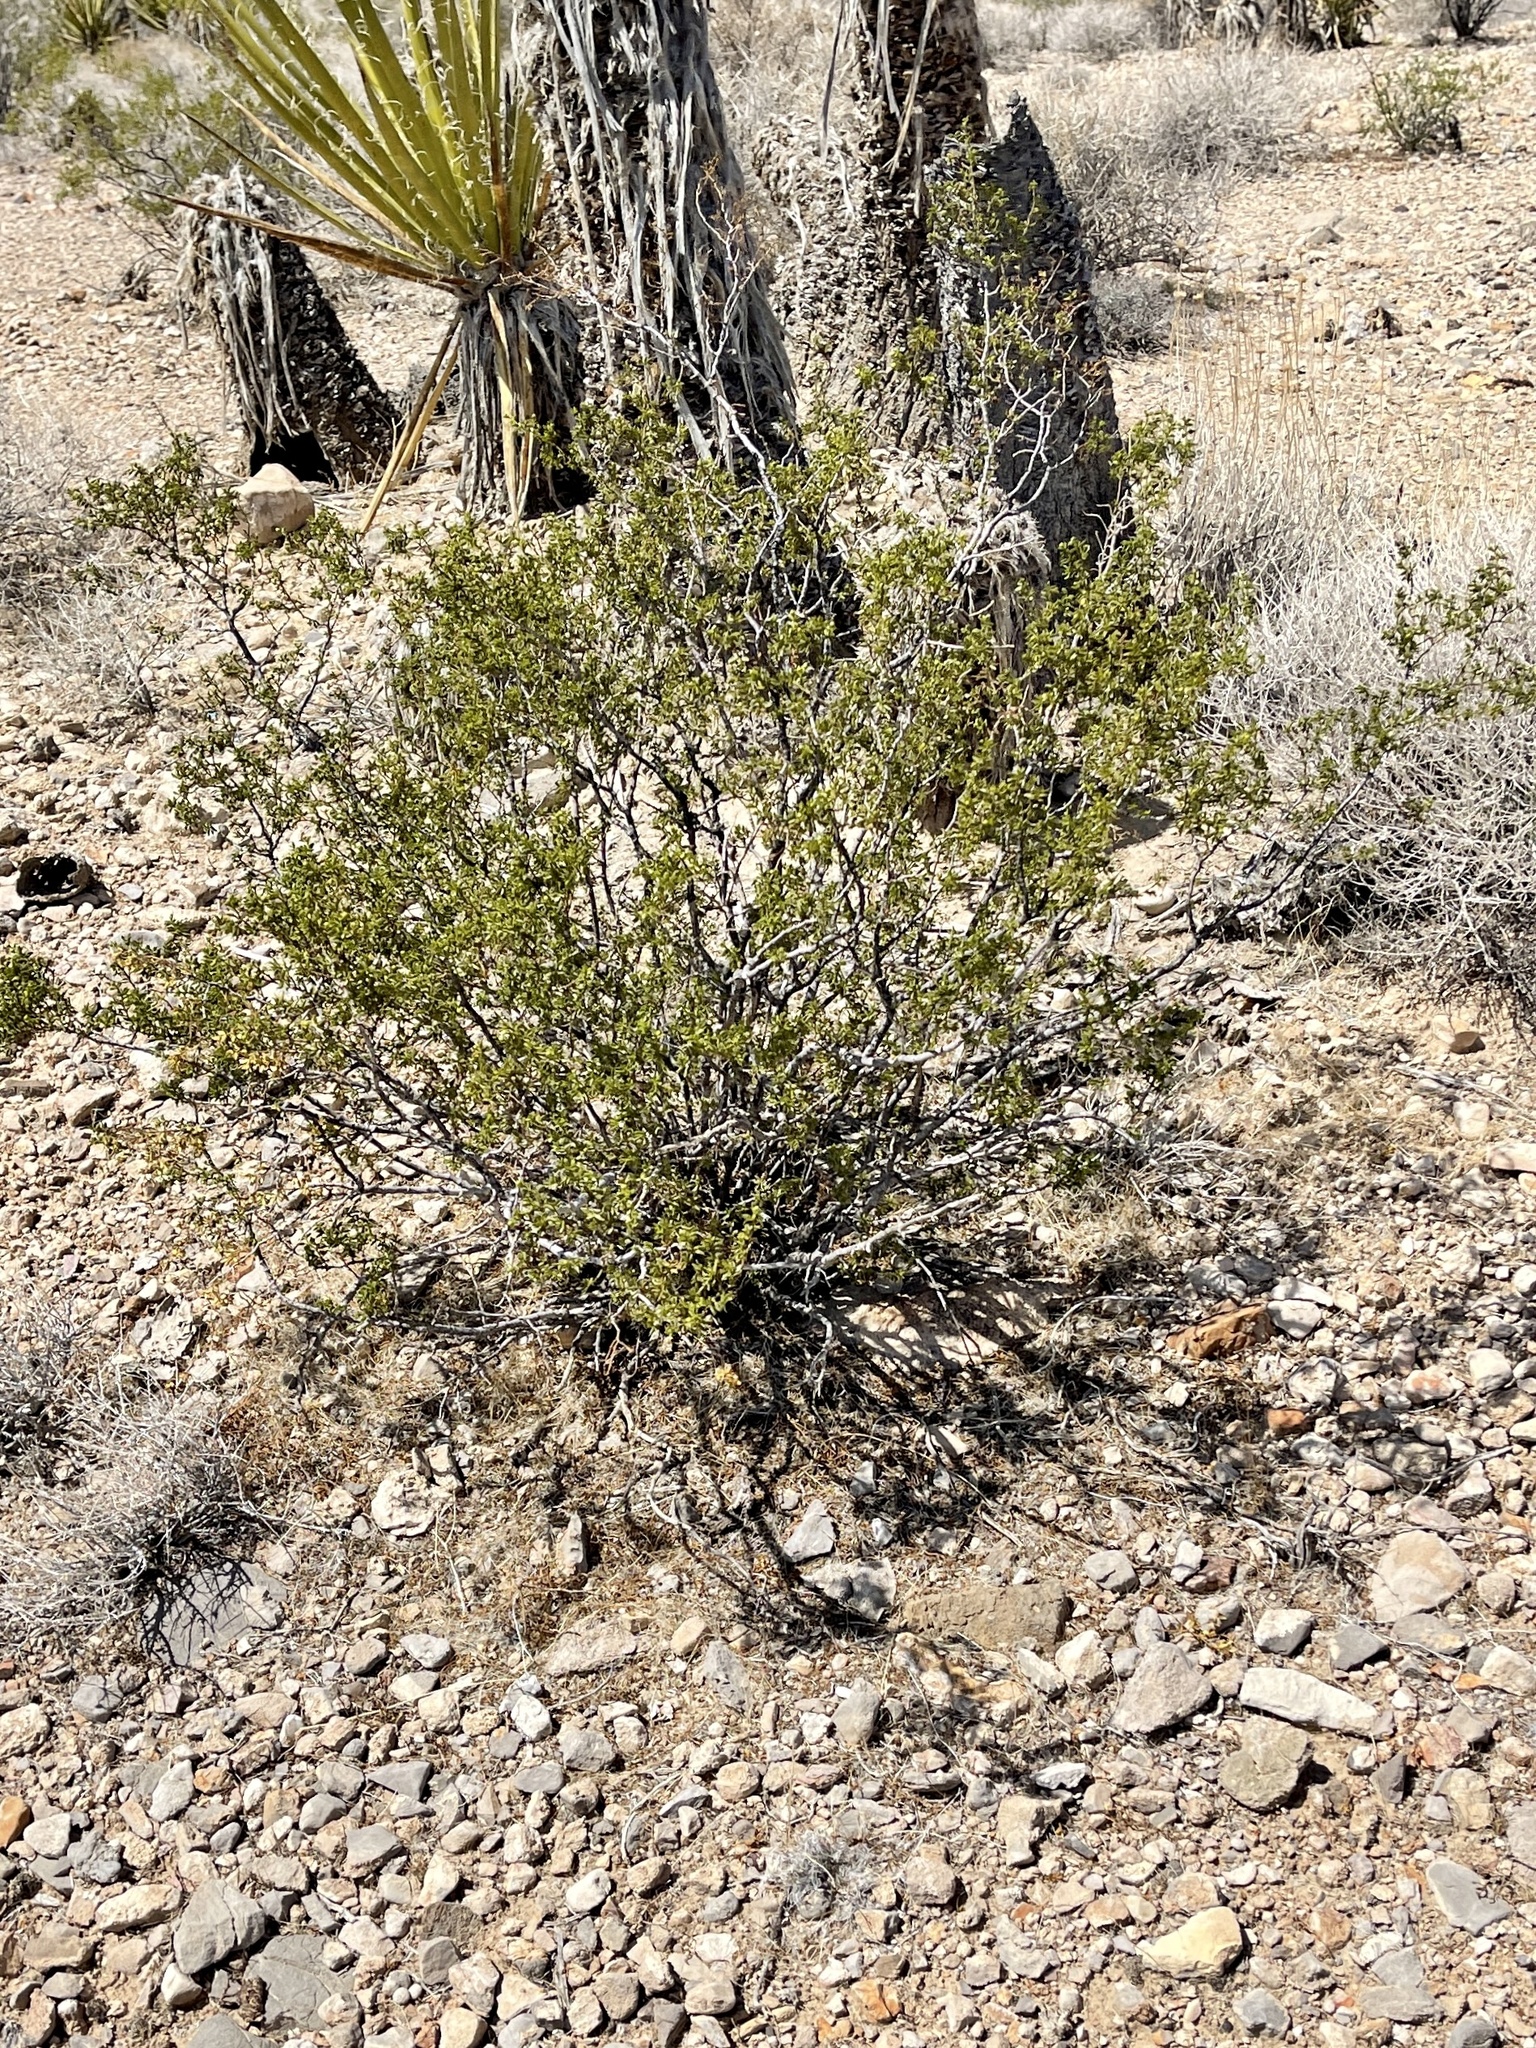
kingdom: Plantae
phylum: Tracheophyta
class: Magnoliopsida
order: Zygophyllales
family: Zygophyllaceae
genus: Larrea
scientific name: Larrea tridentata
